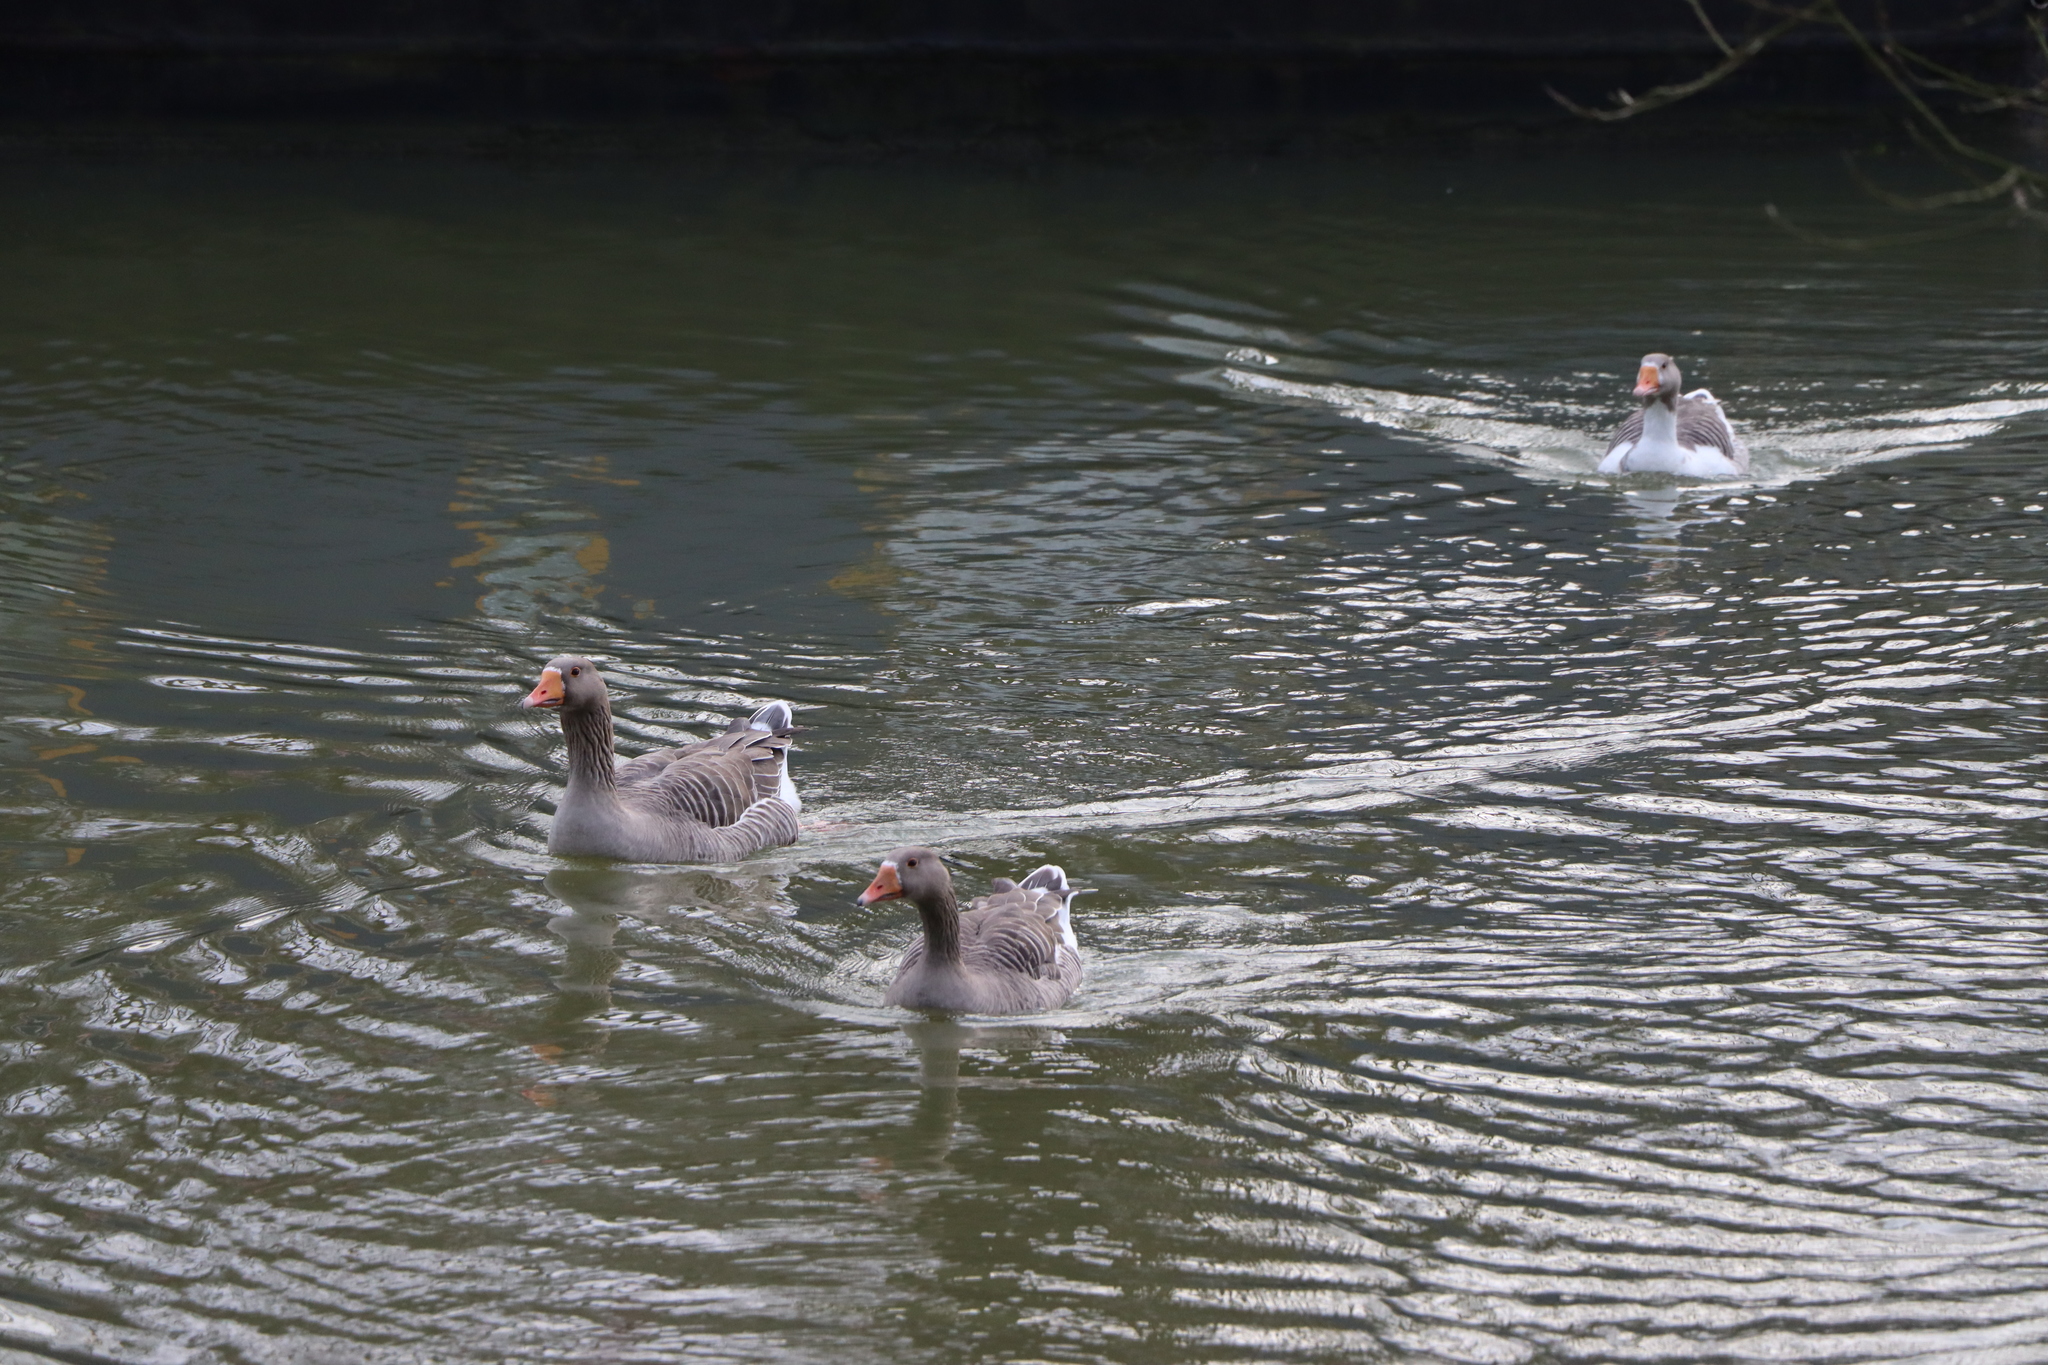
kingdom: Animalia
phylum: Chordata
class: Aves
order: Anseriformes
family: Anatidae
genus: Anser
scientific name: Anser anser
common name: Greylag goose
